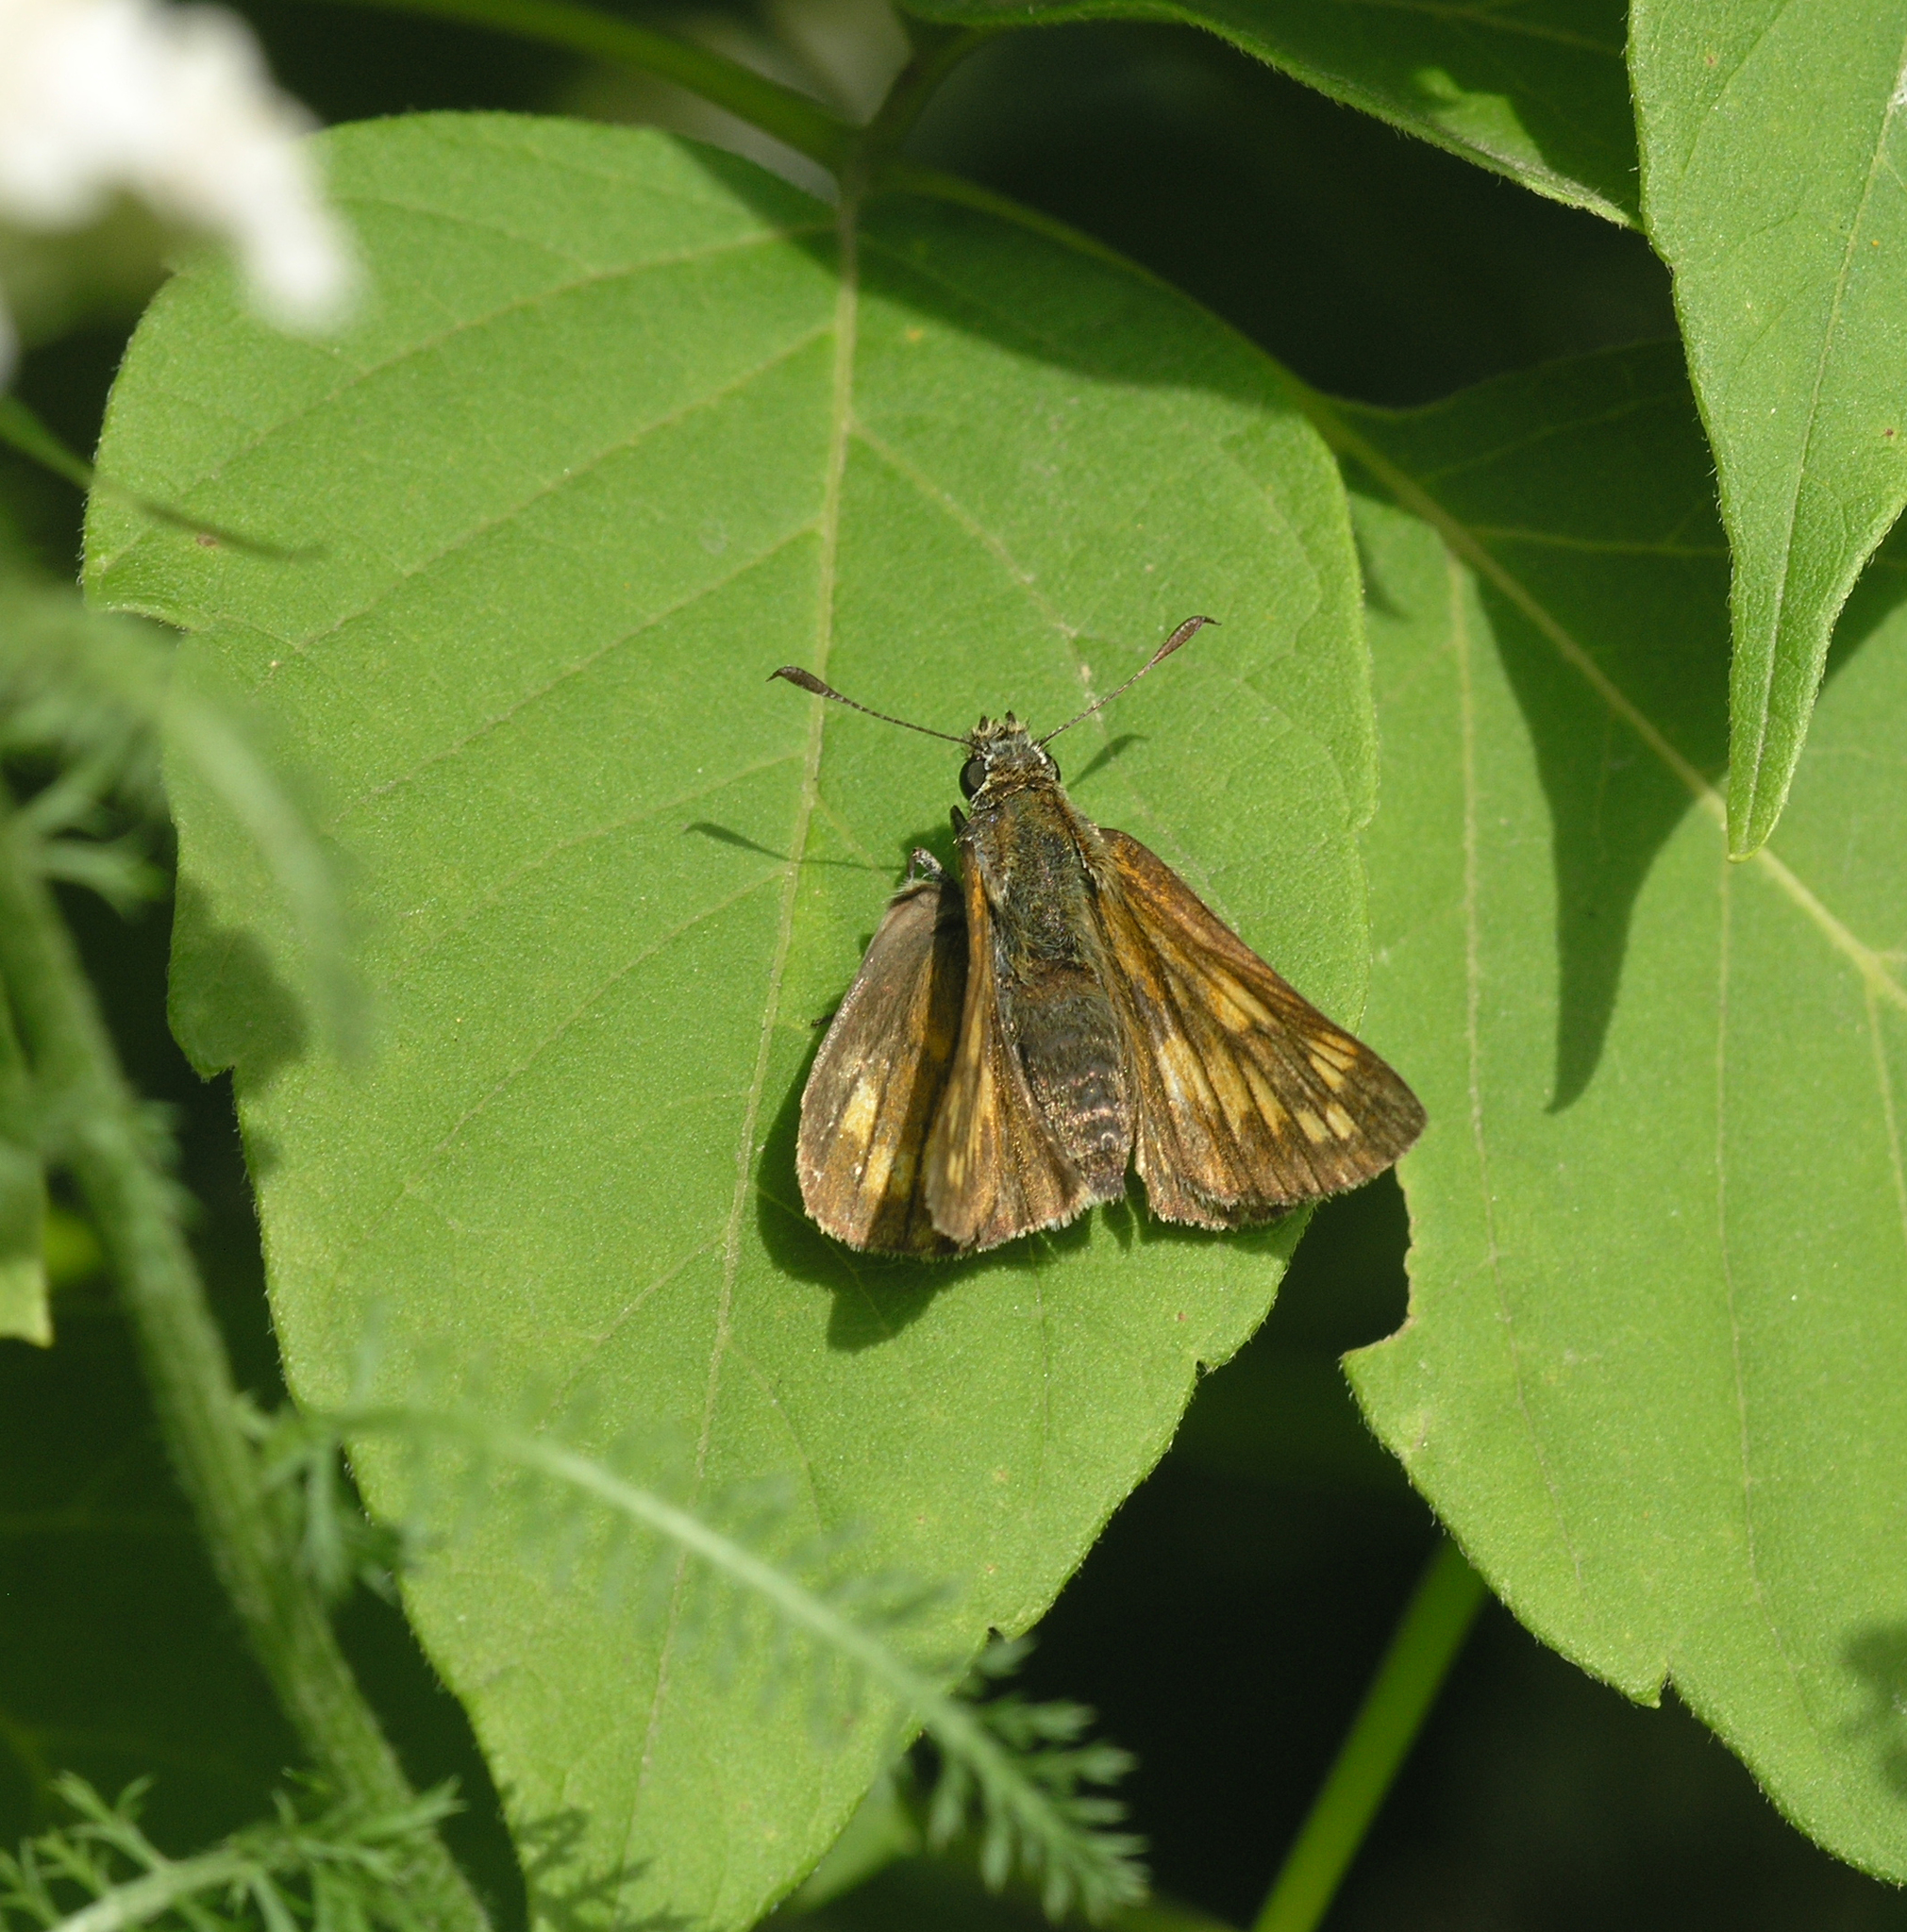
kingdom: Animalia
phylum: Arthropoda
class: Insecta
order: Lepidoptera
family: Hesperiidae
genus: Ochlodes
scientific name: Ochlodes venata
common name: Large skipper
